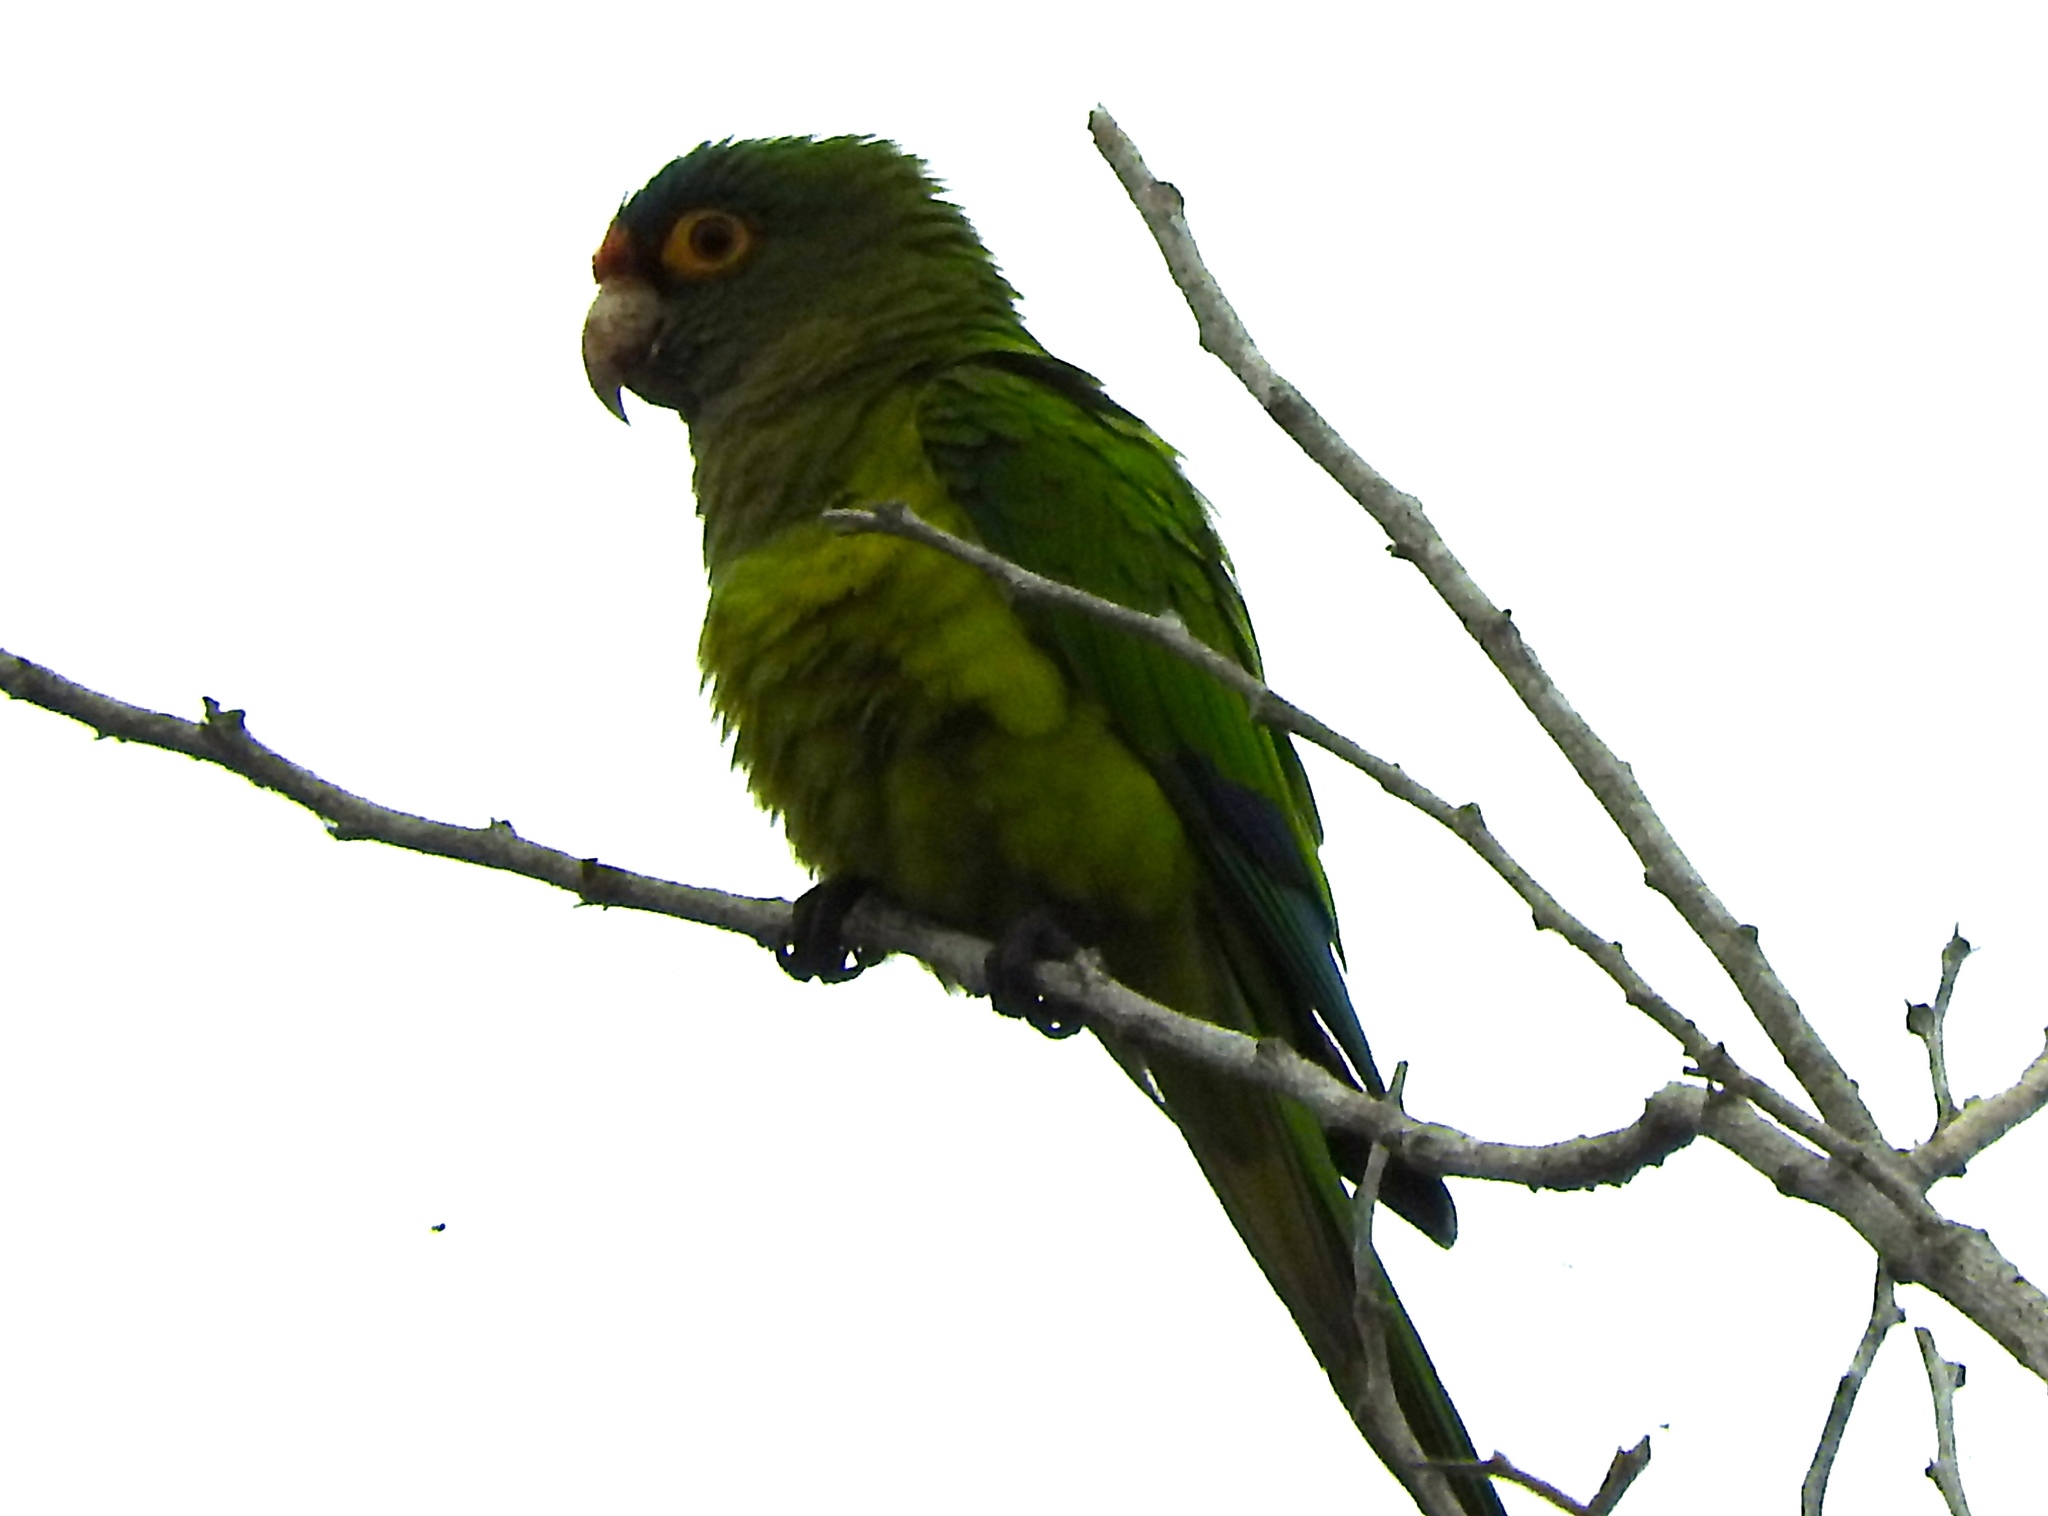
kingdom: Animalia
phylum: Chordata
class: Aves
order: Psittaciformes
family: Psittacidae
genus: Aratinga
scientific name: Aratinga canicularis
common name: Orange-fronted parakeet
